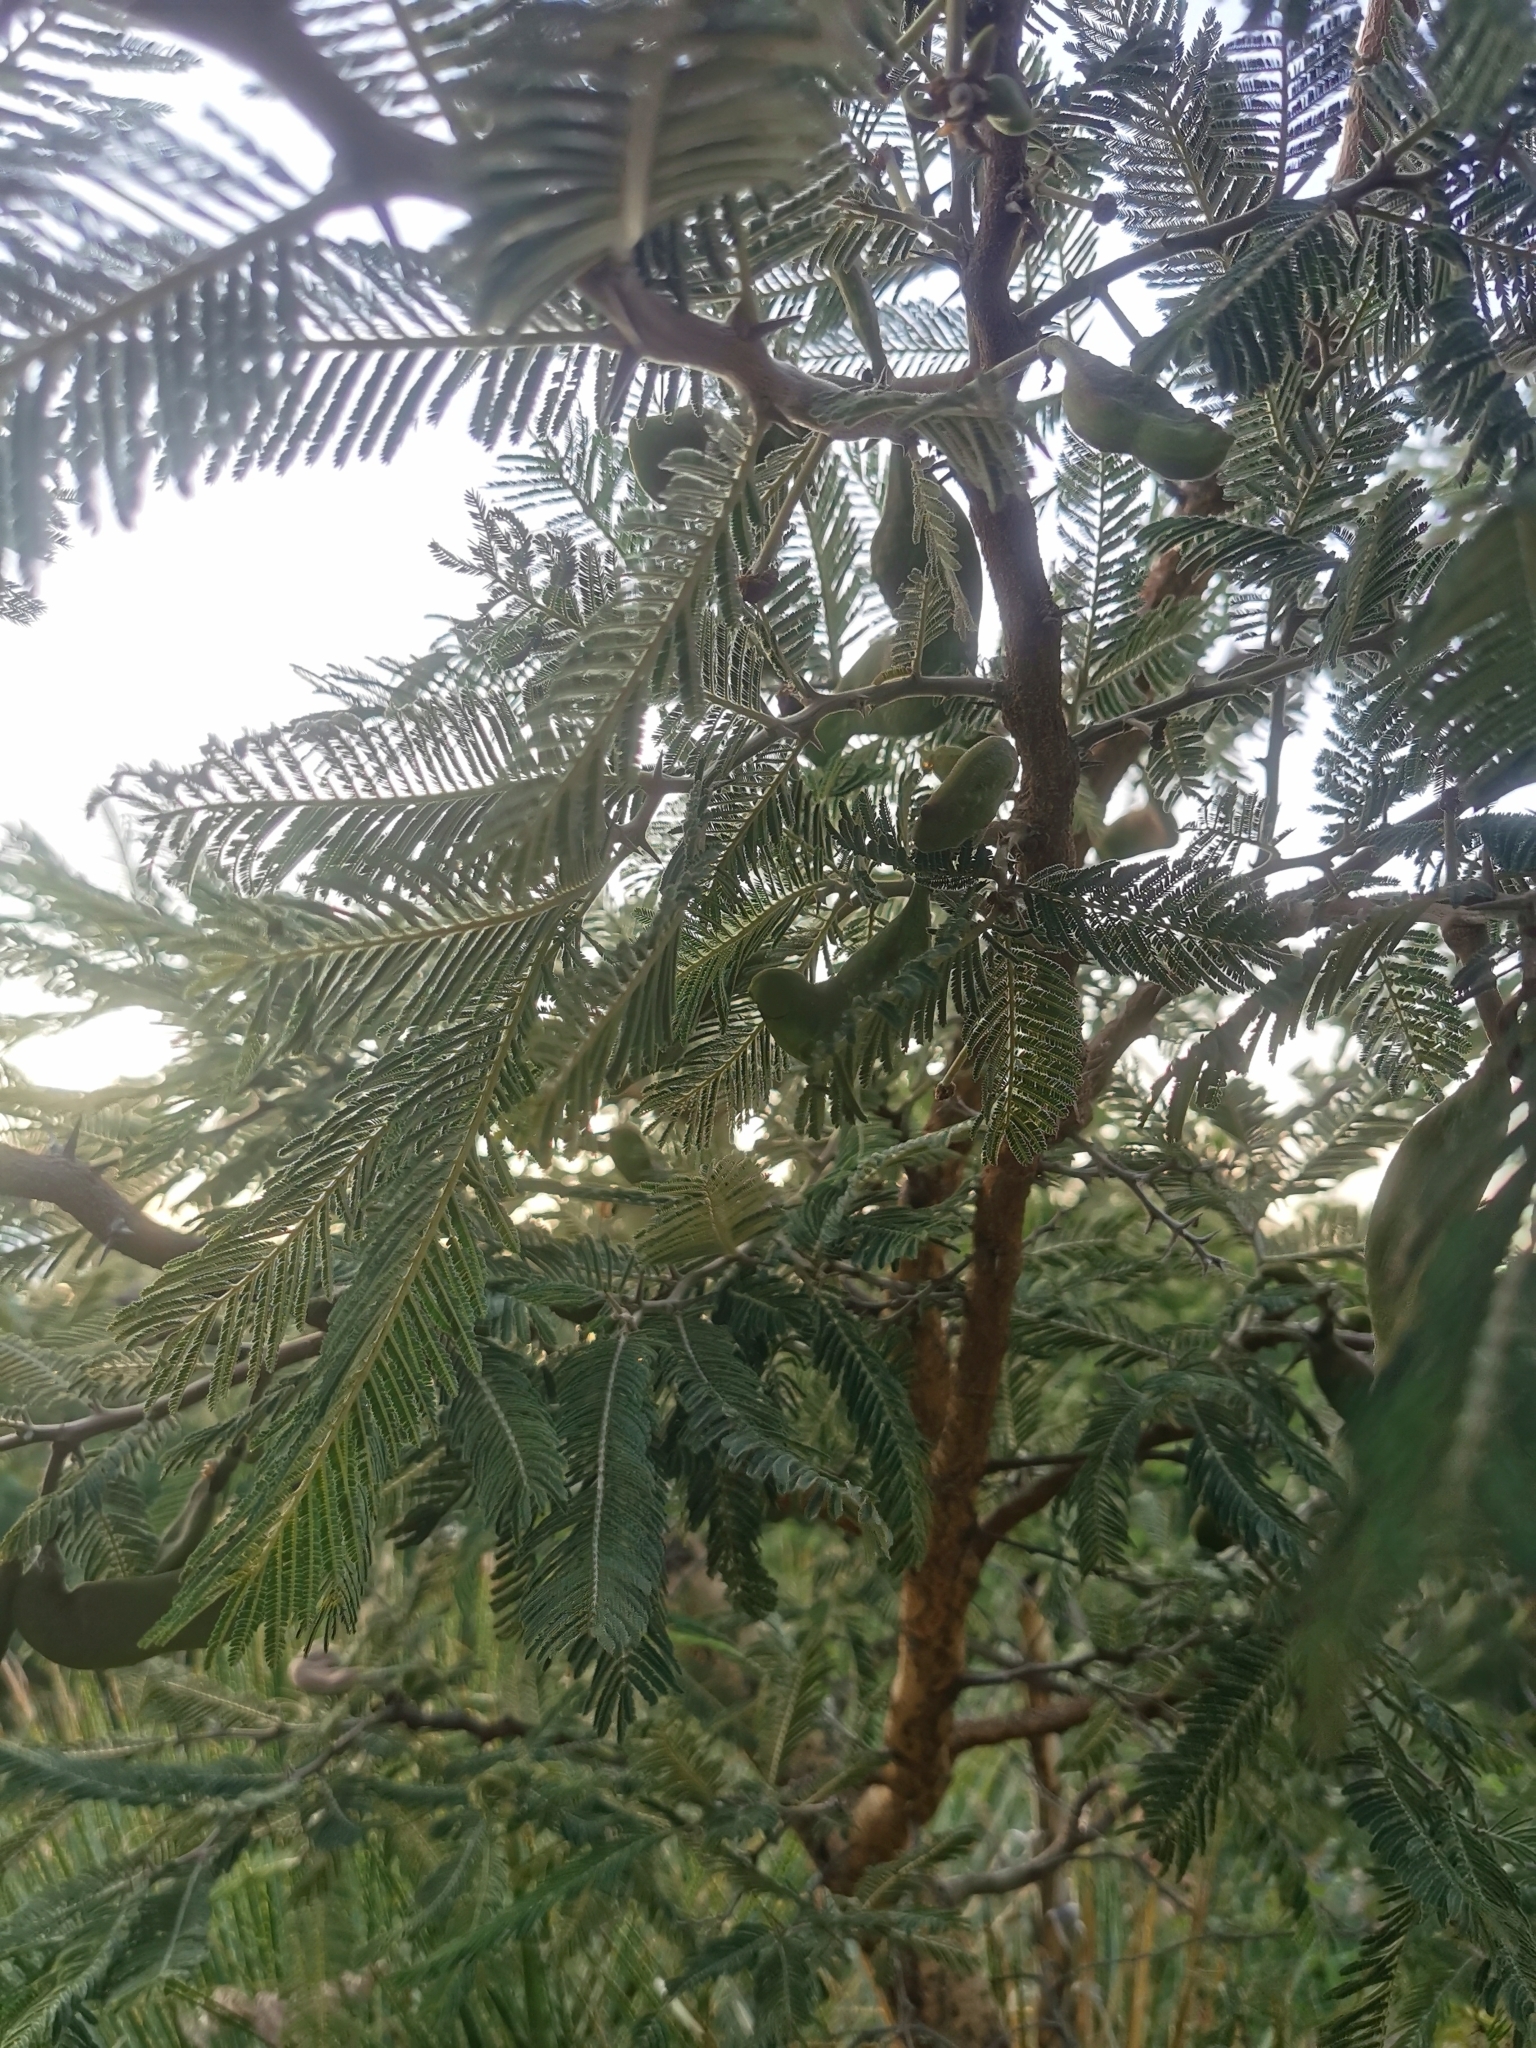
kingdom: Plantae
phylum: Tracheophyta
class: Magnoliopsida
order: Fabales
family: Fabaceae
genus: Vachellia
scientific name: Vachellia pennatula
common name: Fern-leaf acacia
